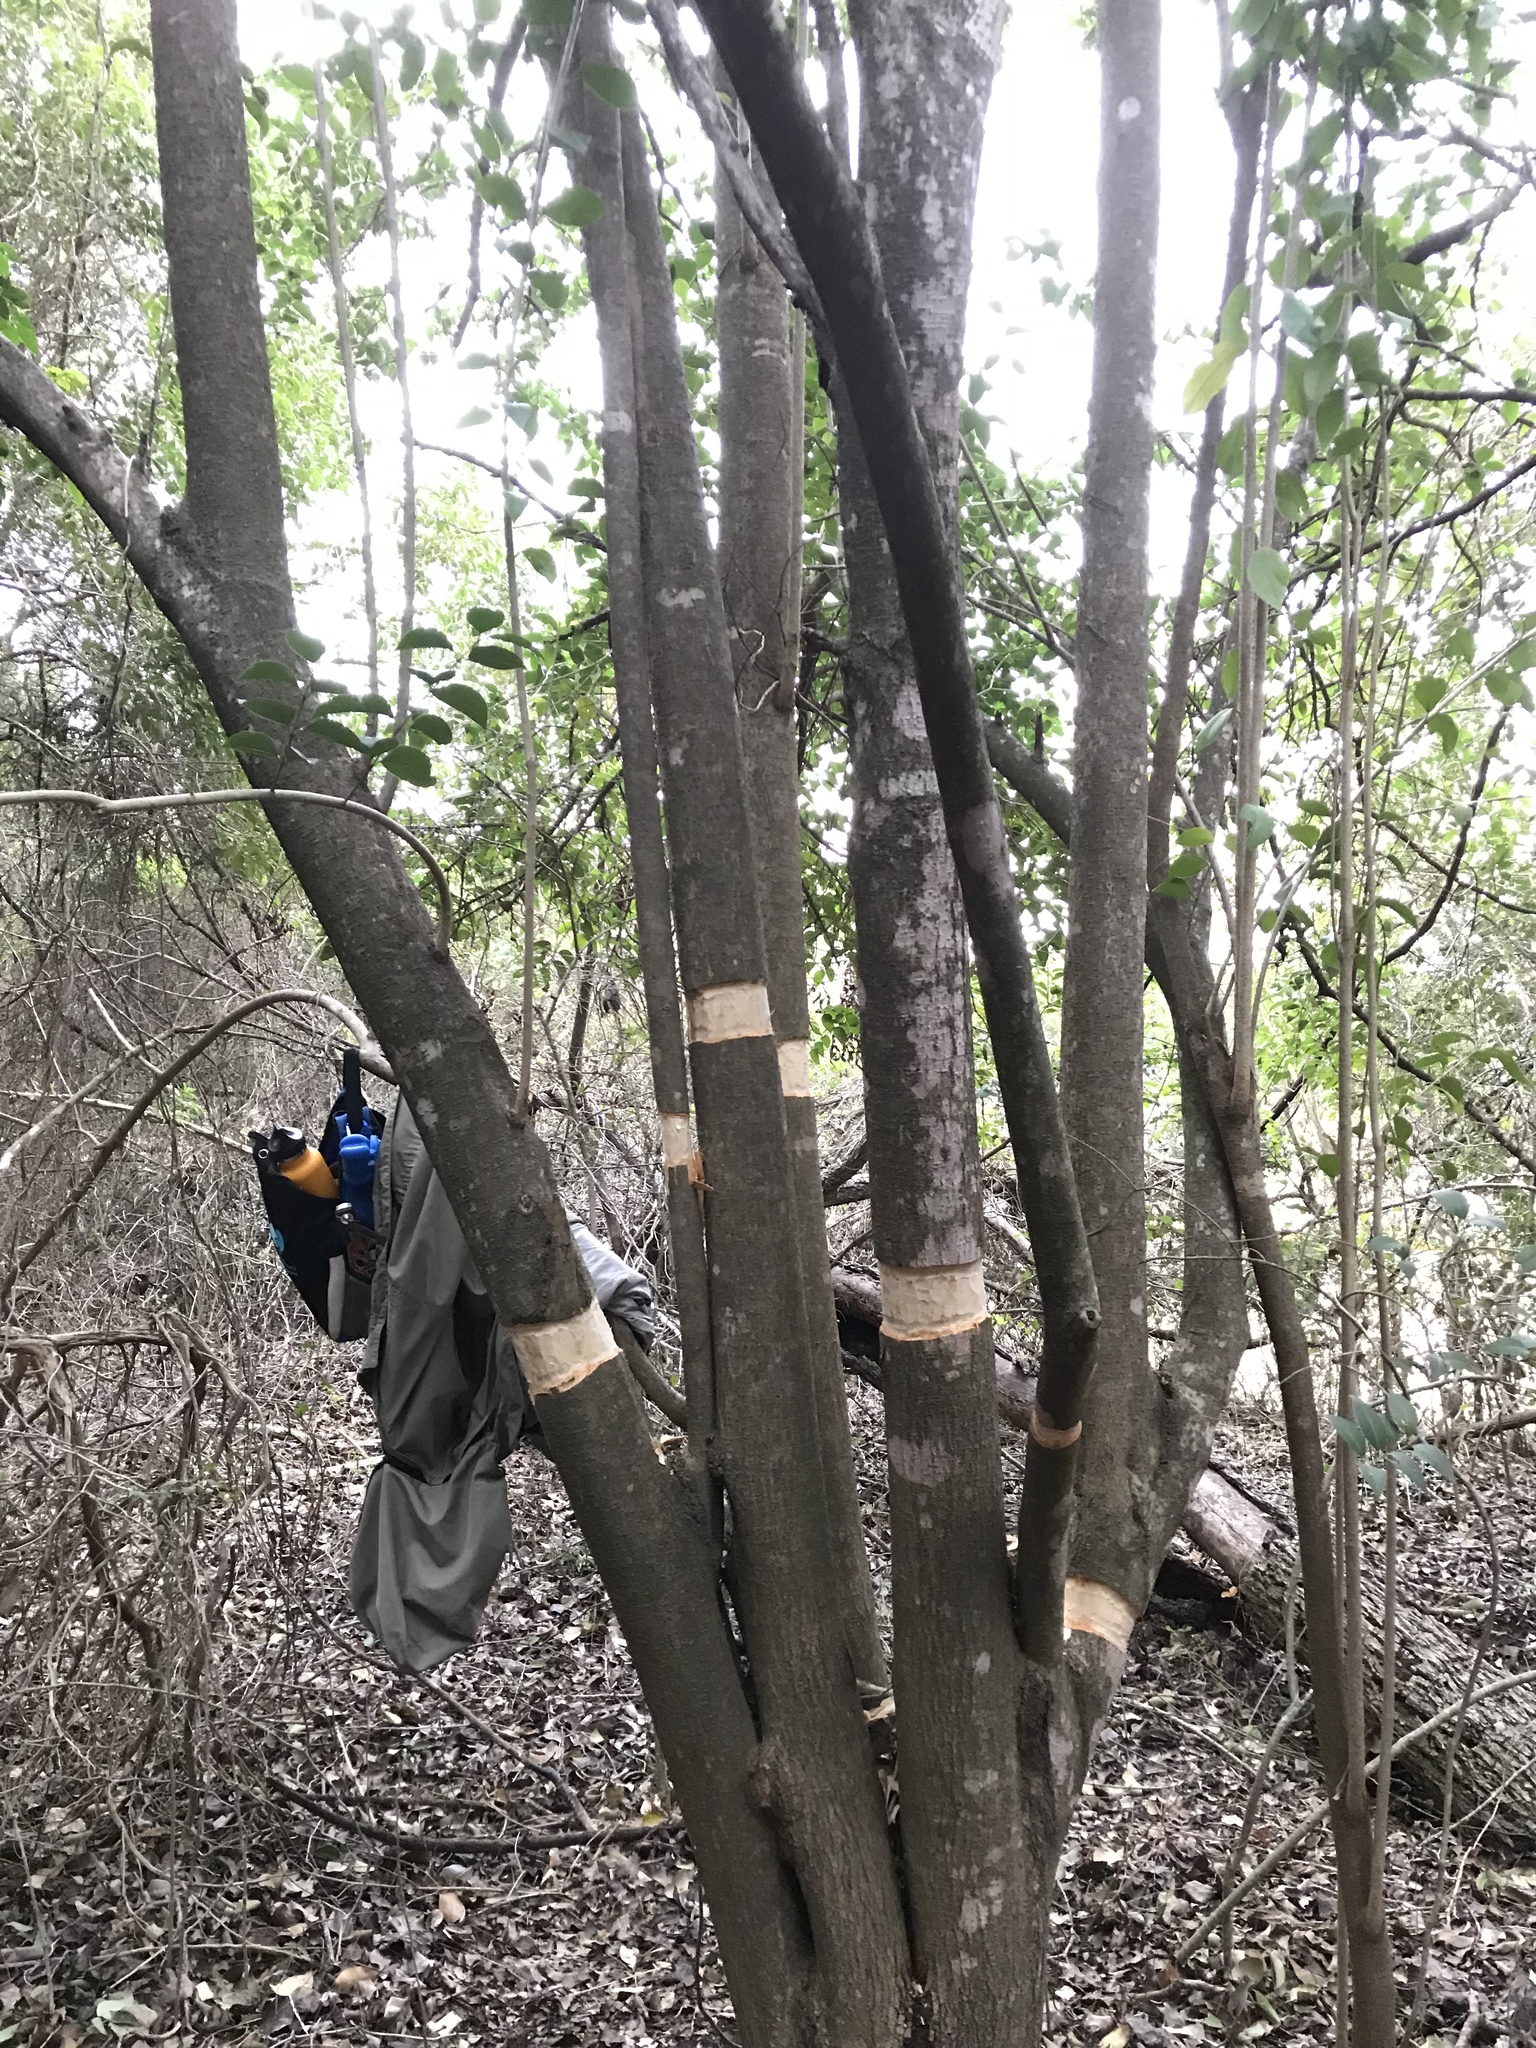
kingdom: Plantae
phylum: Tracheophyta
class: Magnoliopsida
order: Lamiales
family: Oleaceae
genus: Ligustrum
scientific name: Ligustrum lucidum
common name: Glossy privet
